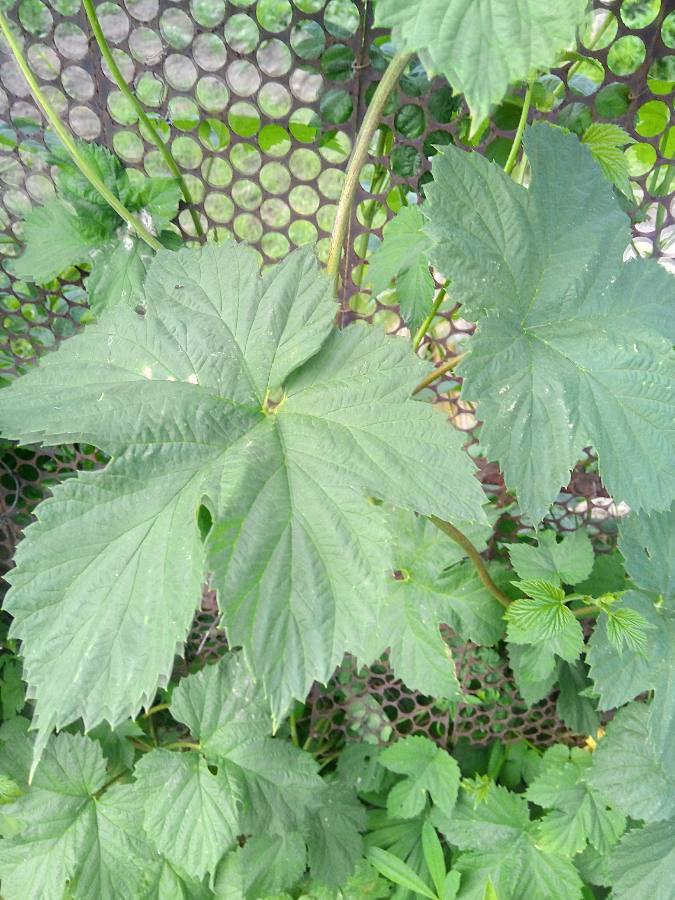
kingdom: Plantae
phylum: Tracheophyta
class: Magnoliopsida
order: Rosales
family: Cannabaceae
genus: Humulus
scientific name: Humulus lupulus
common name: Hop
